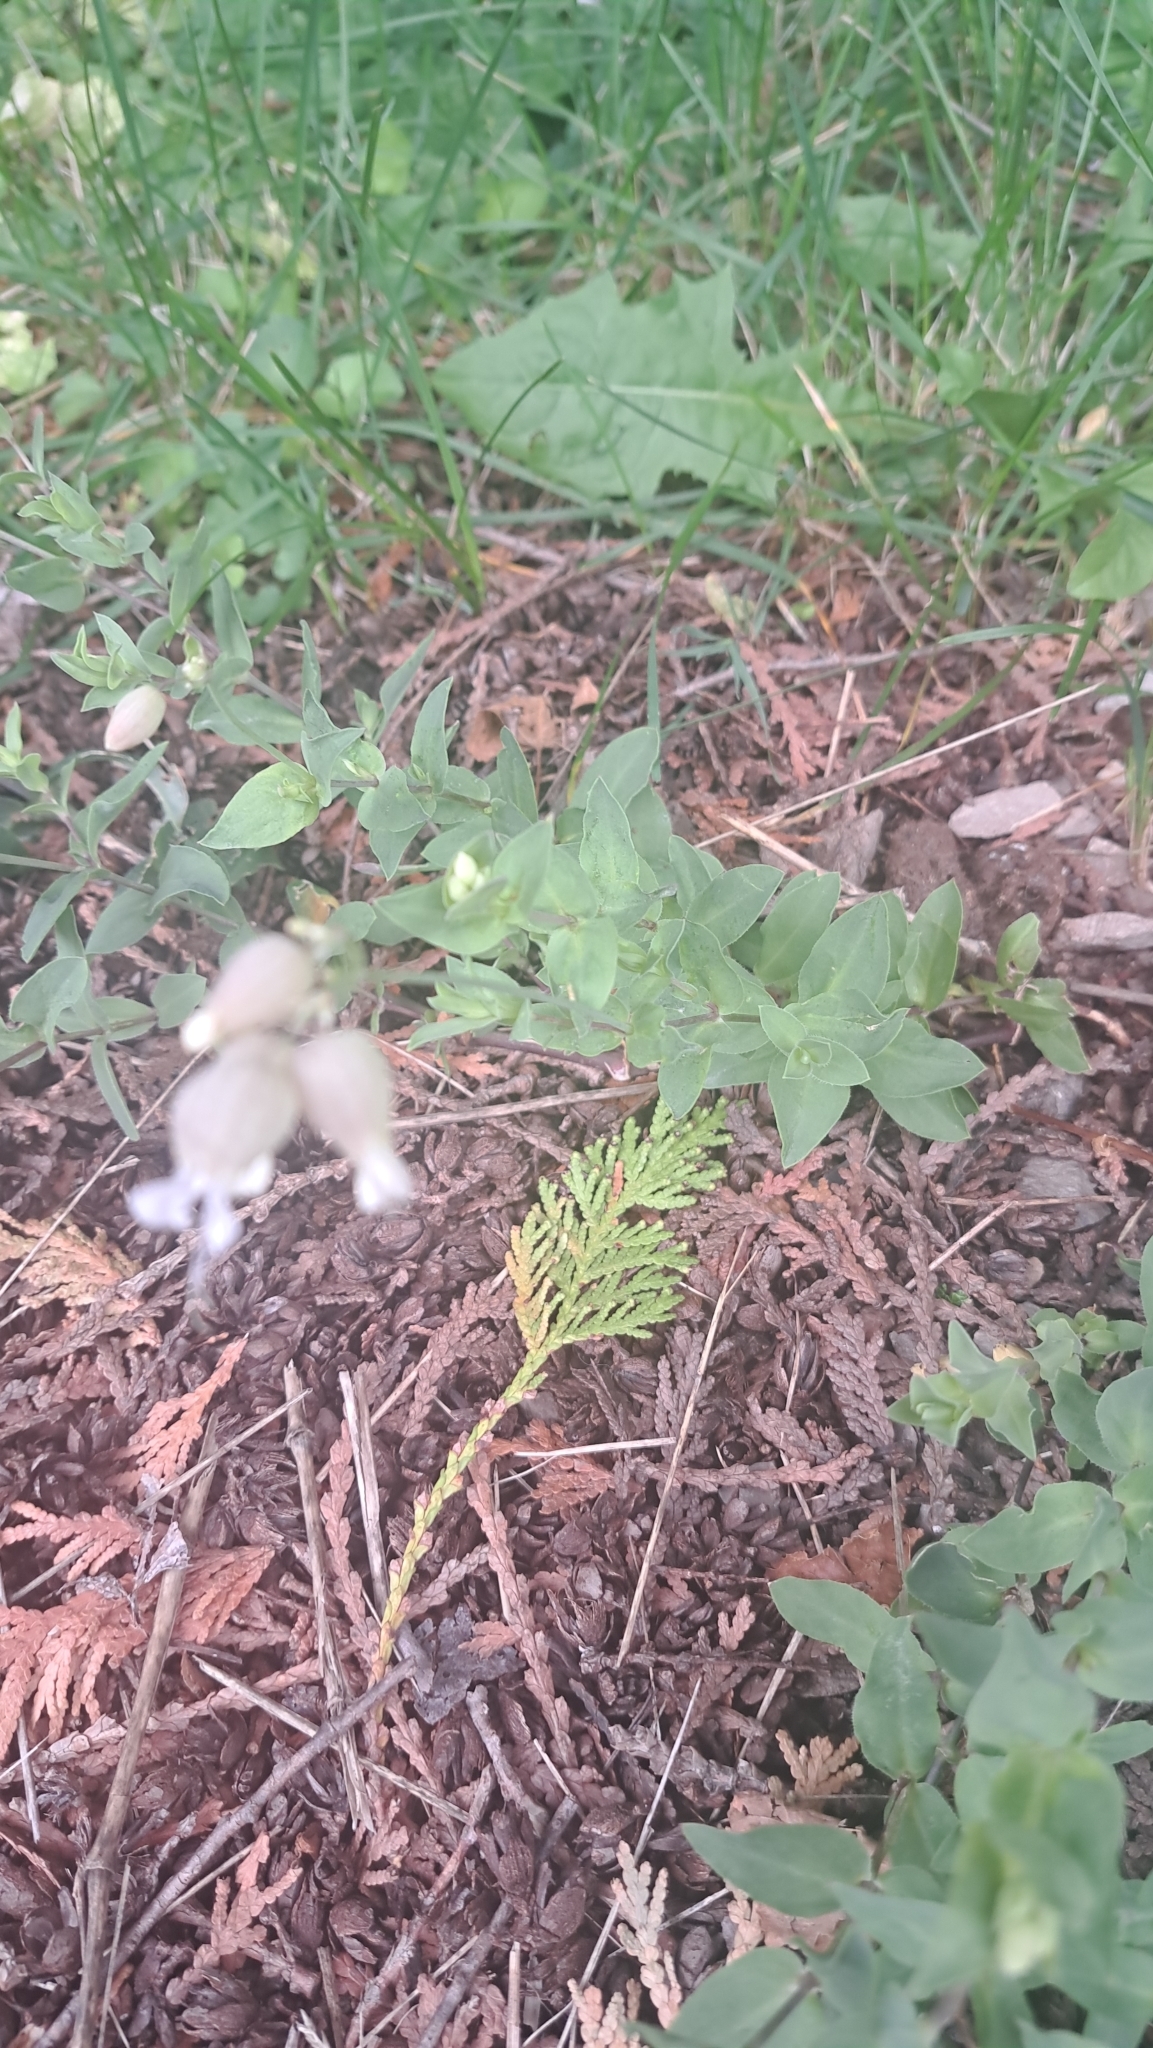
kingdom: Plantae
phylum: Tracheophyta
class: Magnoliopsida
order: Caryophyllales
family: Caryophyllaceae
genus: Silene
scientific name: Silene vulgaris
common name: Bladder campion
